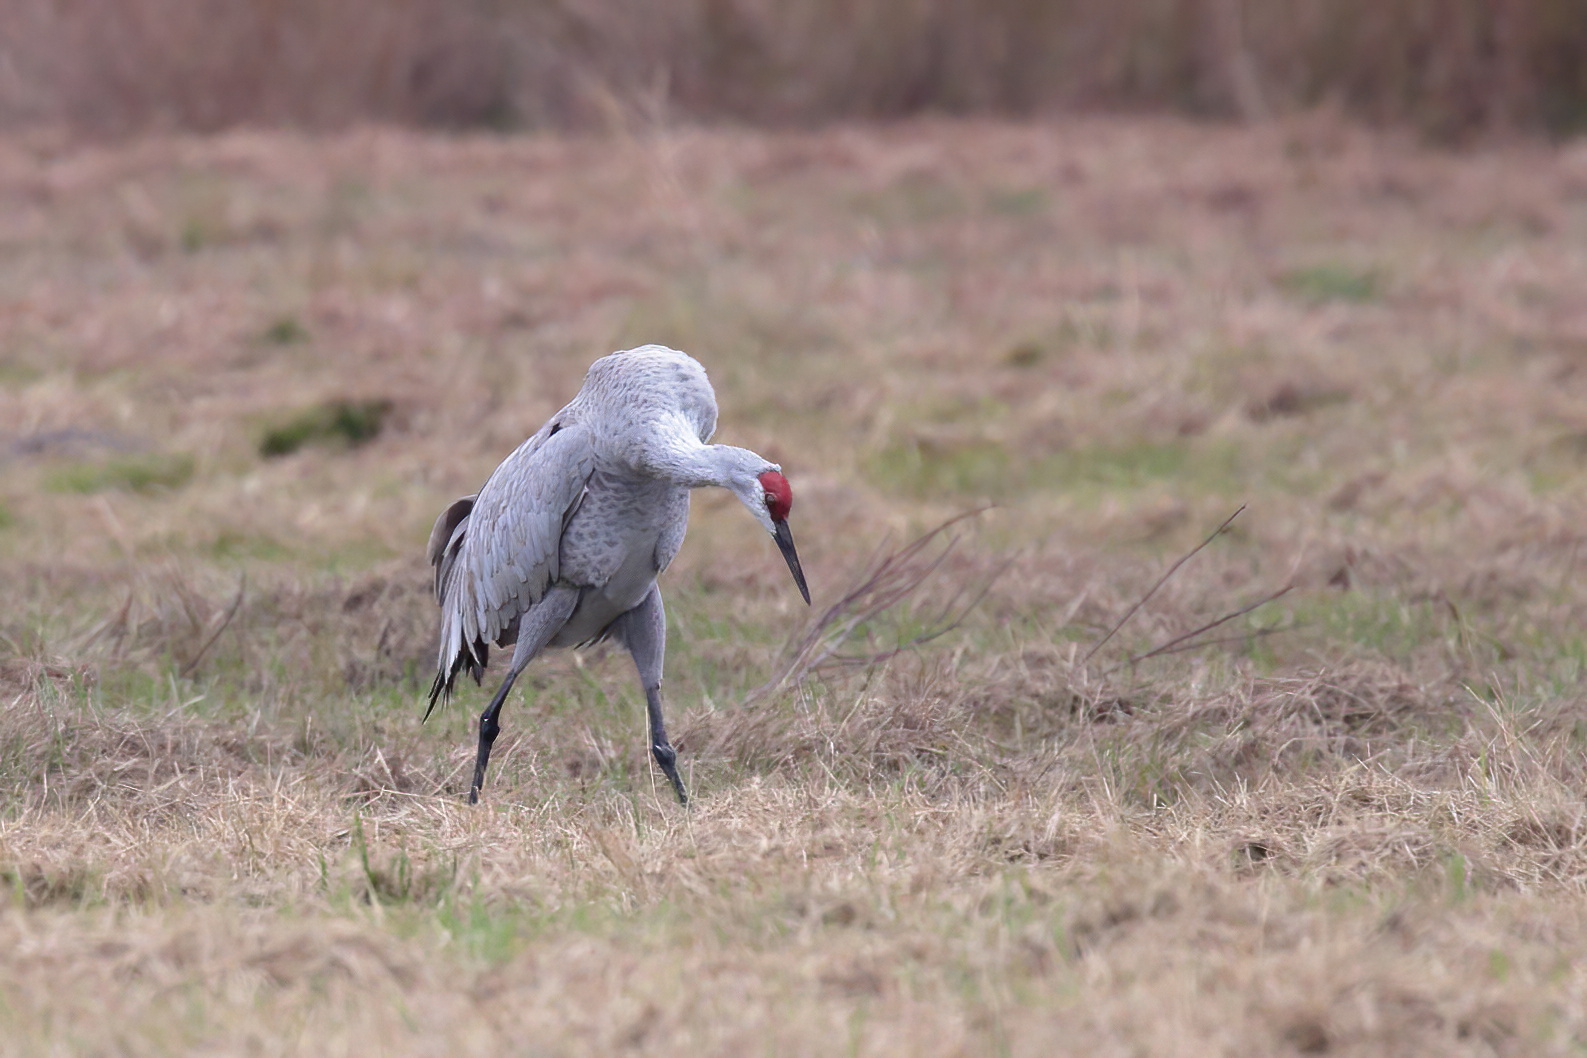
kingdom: Animalia
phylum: Chordata
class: Aves
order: Gruiformes
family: Gruidae
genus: Grus
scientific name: Grus canadensis
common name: Sandhill crane
